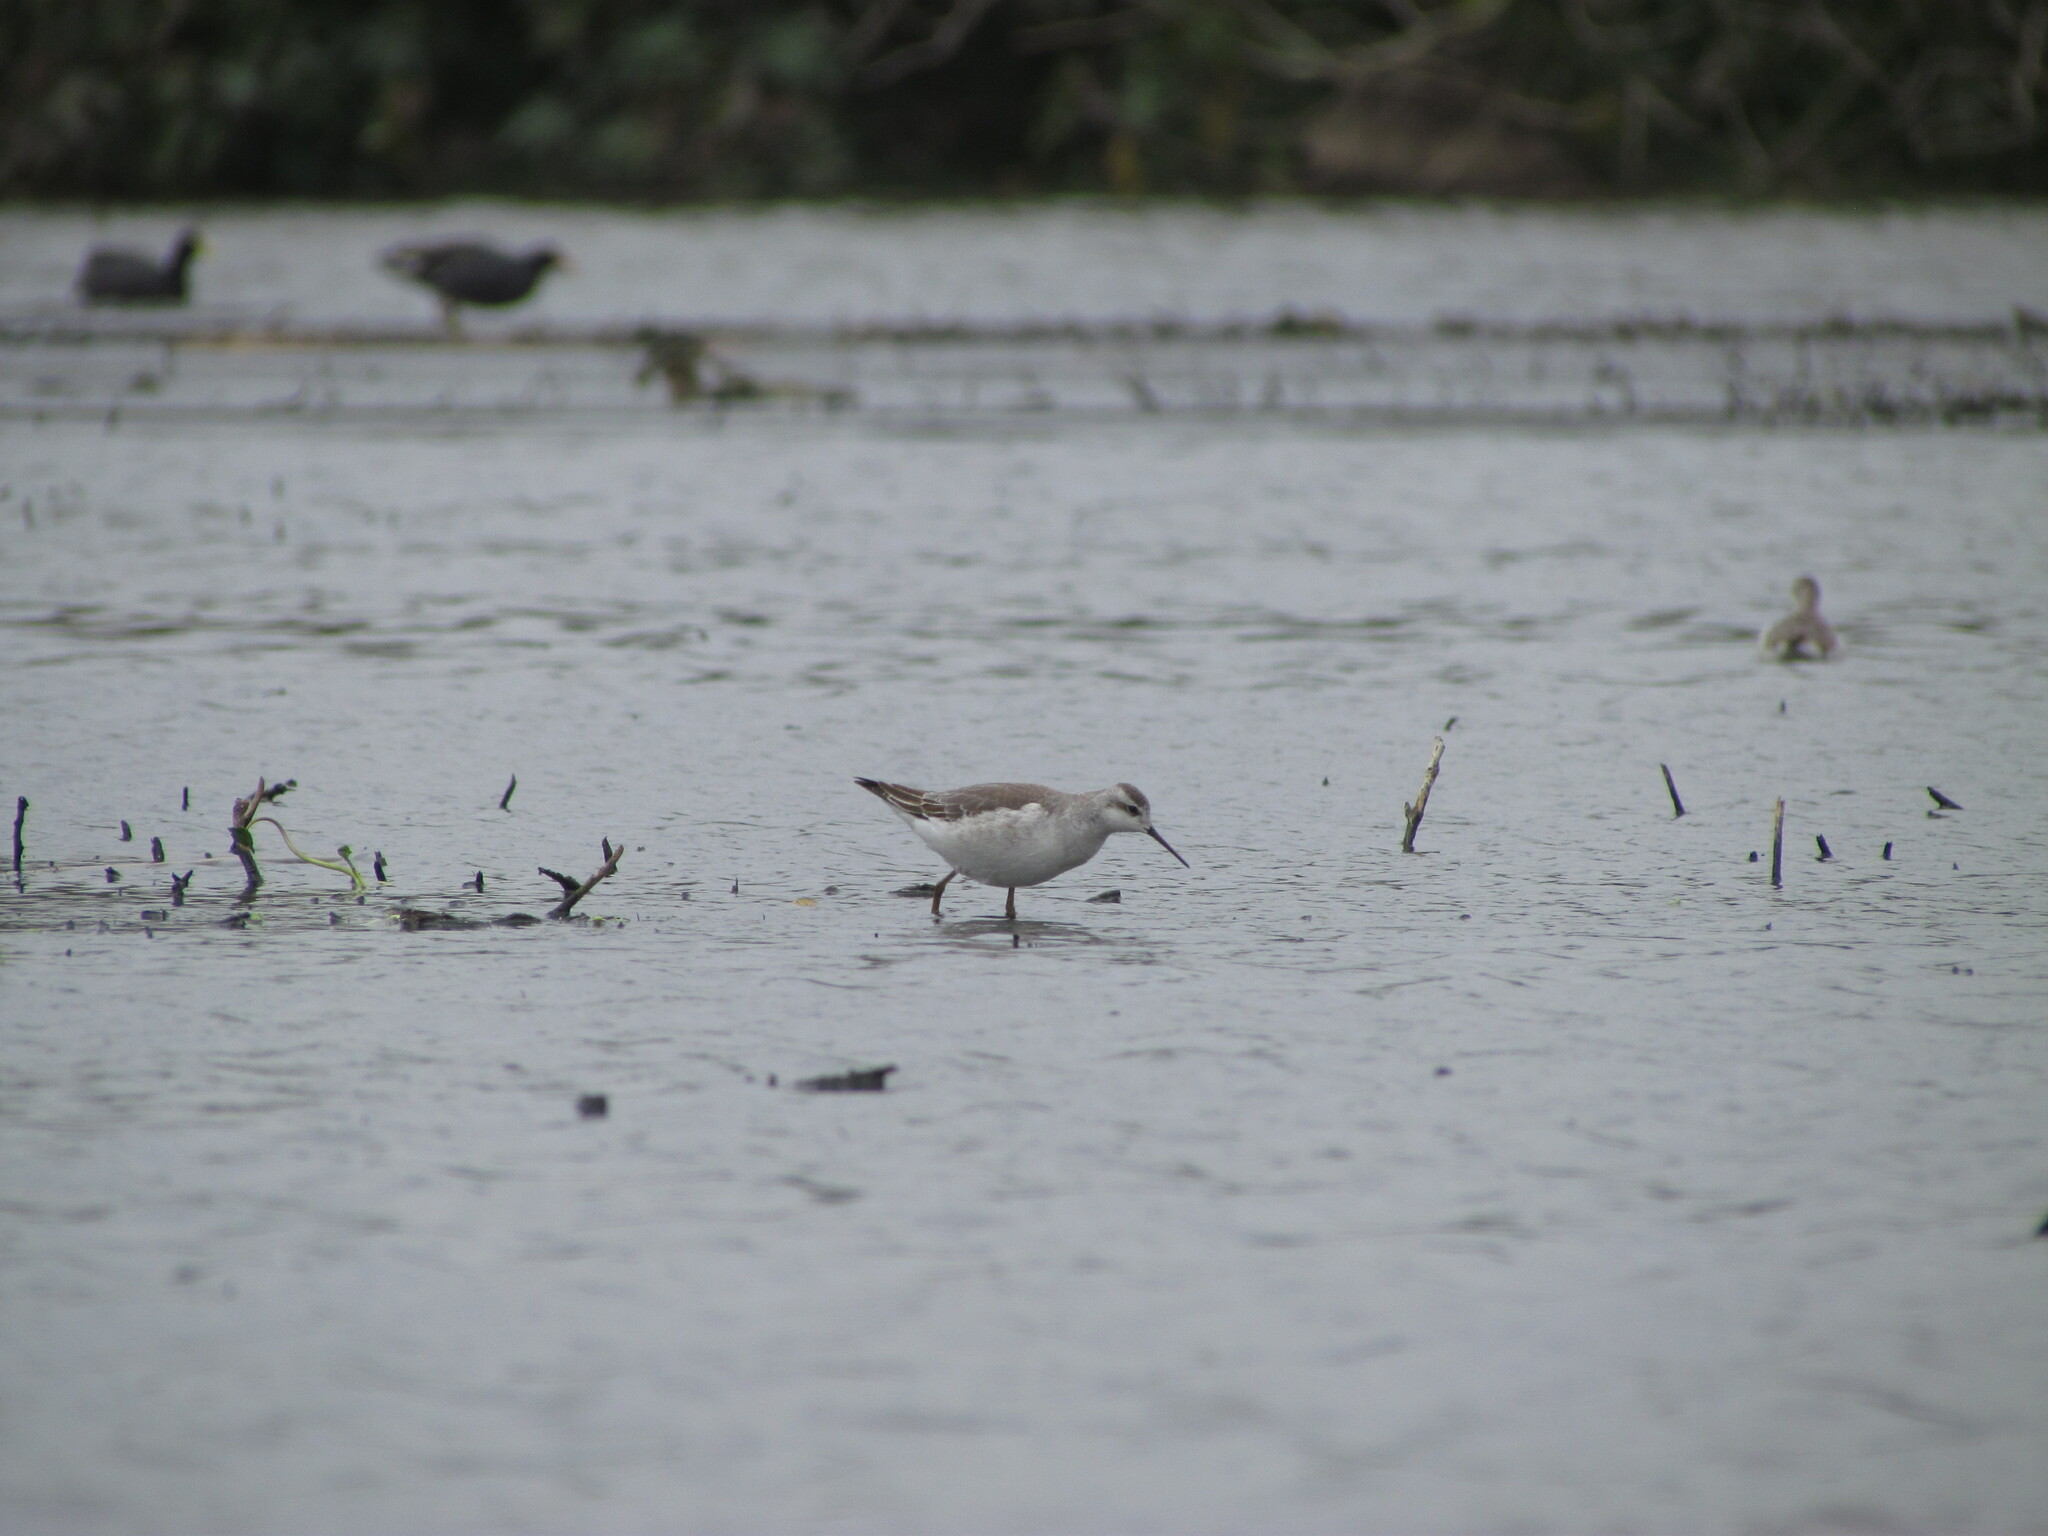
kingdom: Animalia
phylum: Chordata
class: Aves
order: Charadriiformes
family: Scolopacidae
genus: Phalaropus
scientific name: Phalaropus tricolor
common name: Wilson's phalarope
